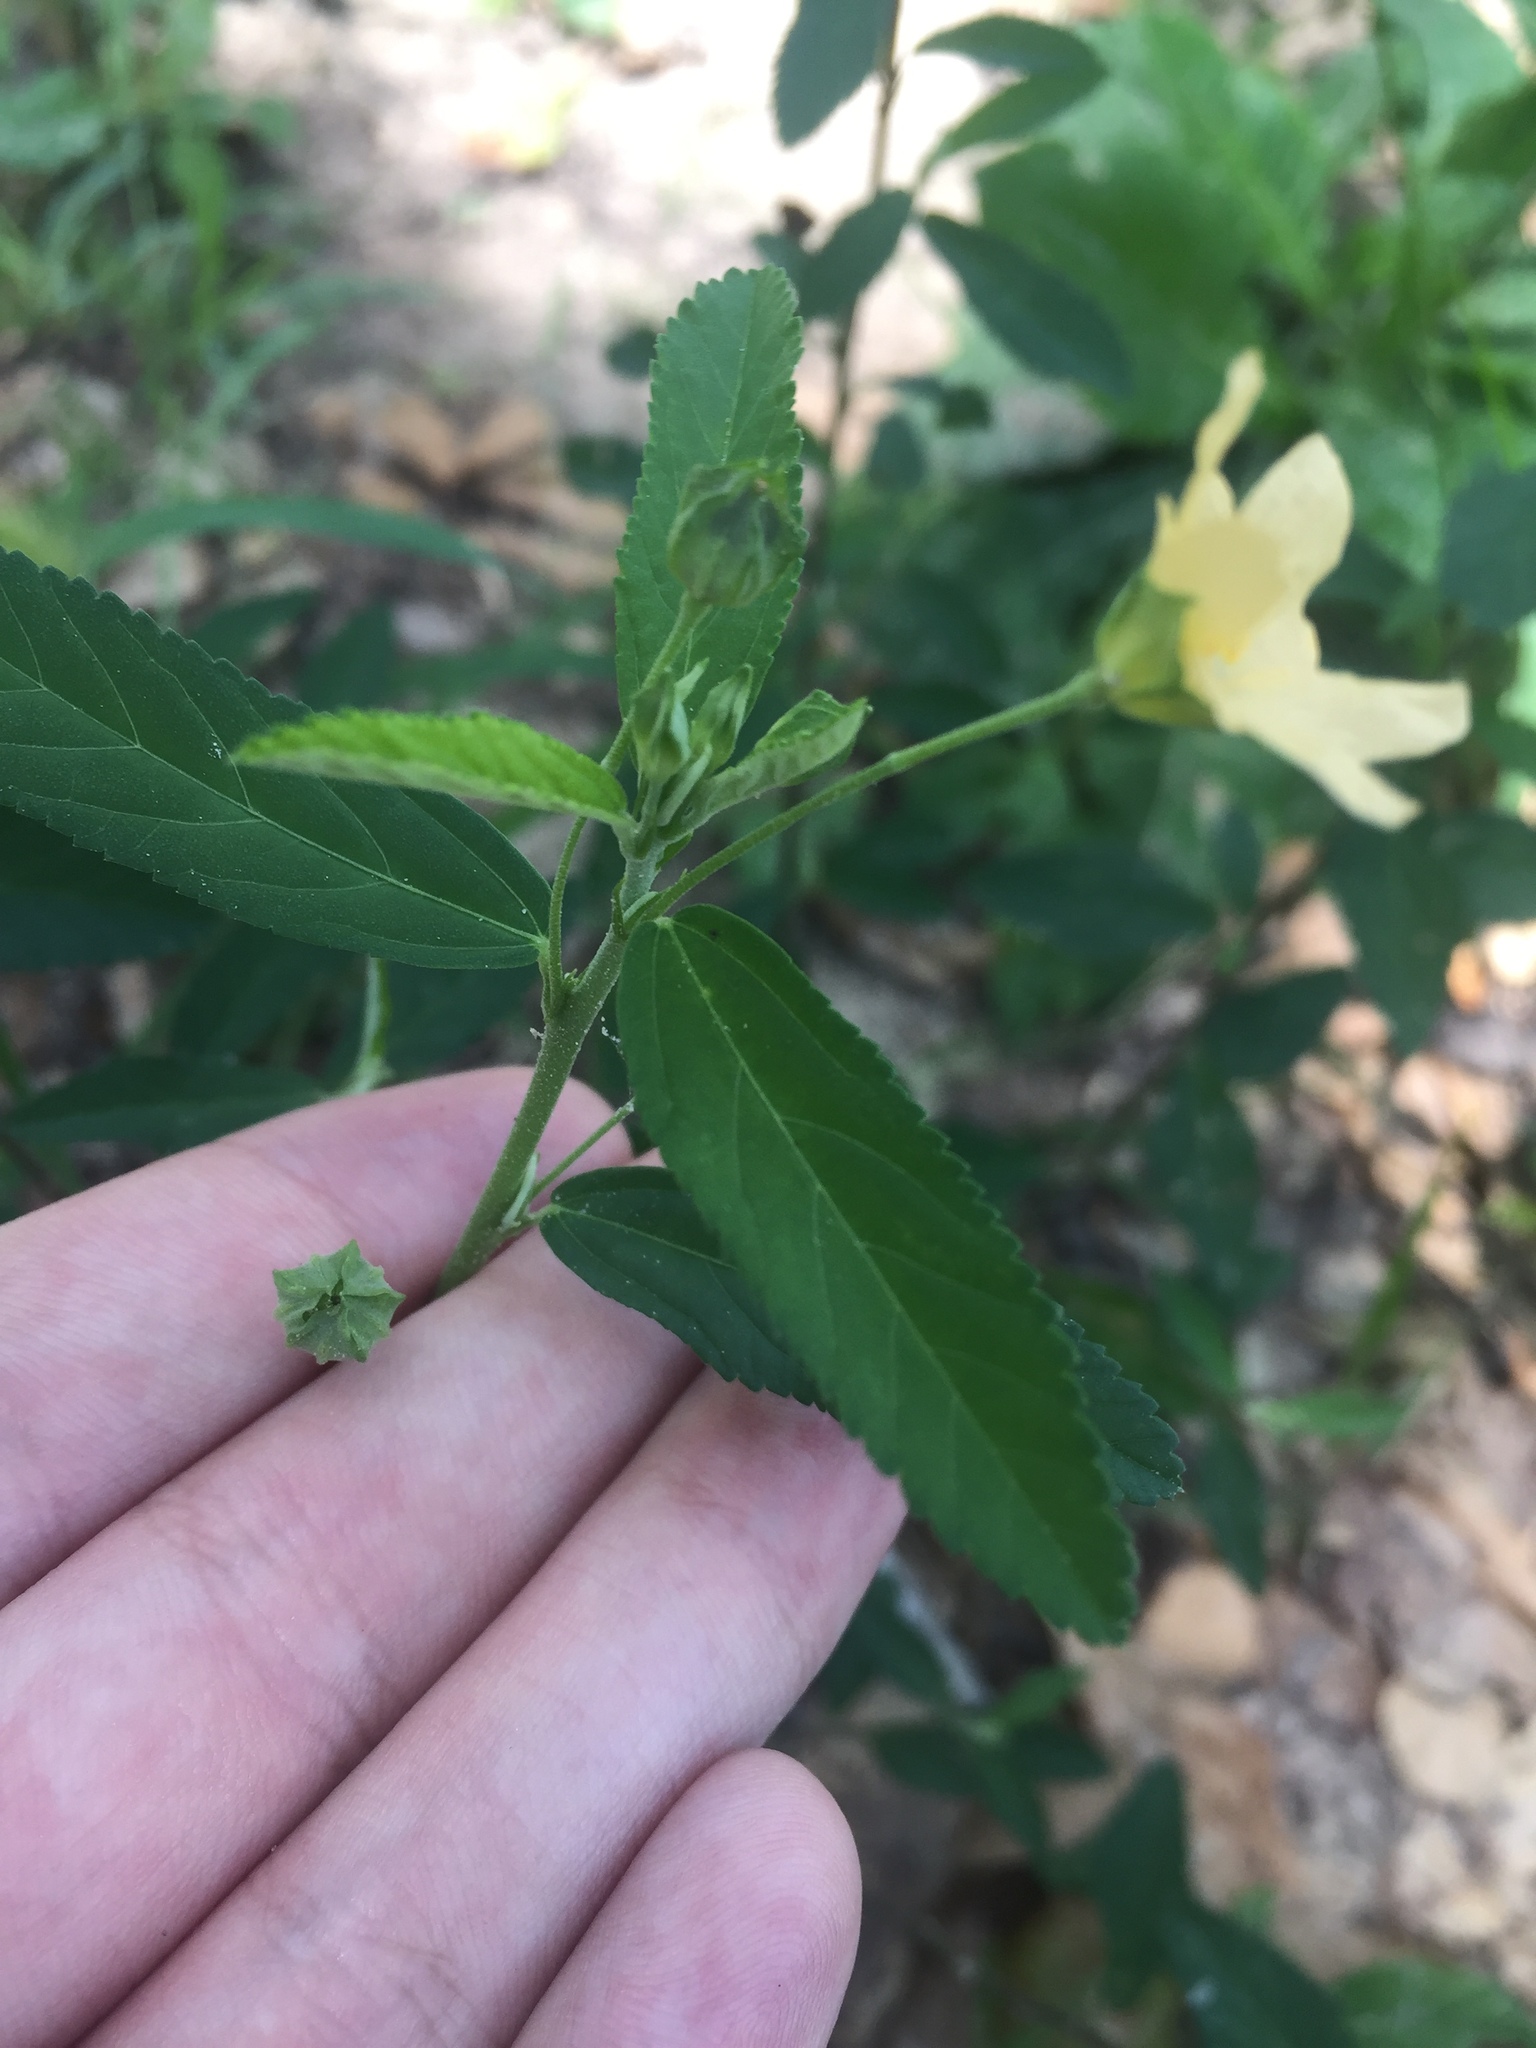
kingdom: Plantae
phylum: Tracheophyta
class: Magnoliopsida
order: Malvales
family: Malvaceae
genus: Sida
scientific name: Sida rhombifolia
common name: Queensland-hemp
